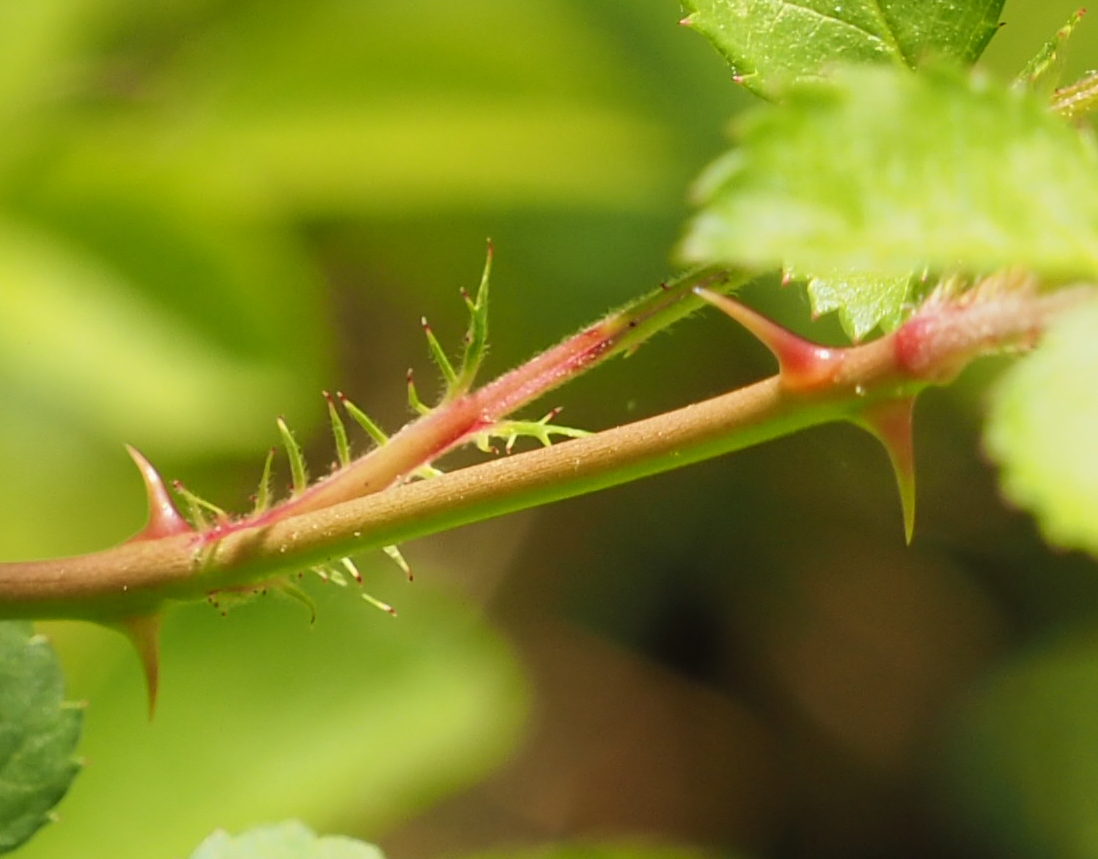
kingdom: Plantae
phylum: Tracheophyta
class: Magnoliopsida
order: Rosales
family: Rosaceae
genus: Rosa
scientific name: Rosa multiflora
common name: Multiflora rose
